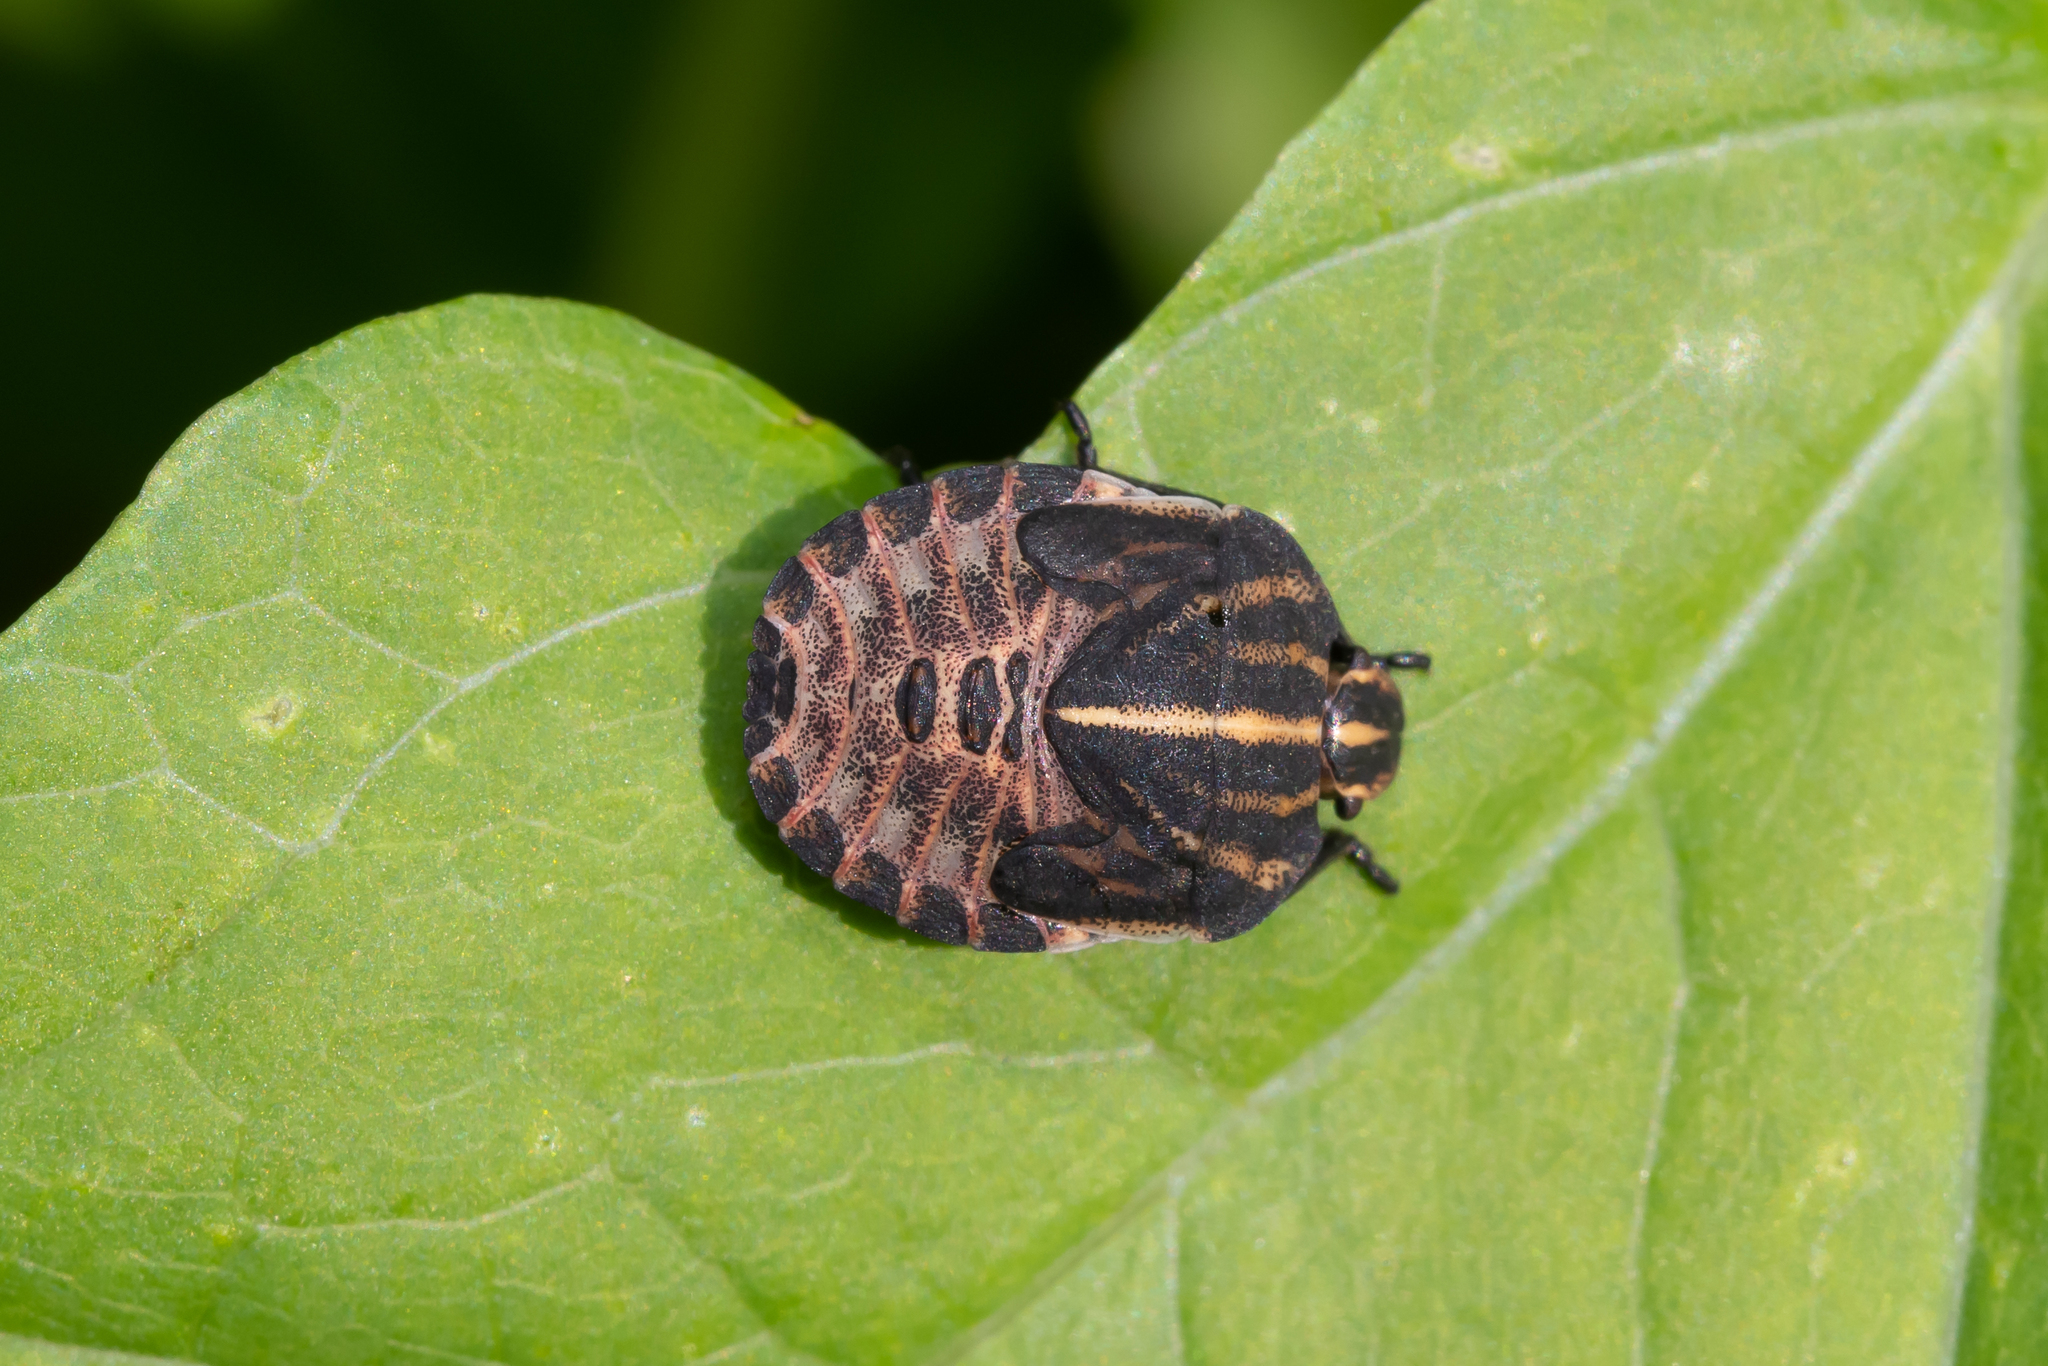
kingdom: Animalia
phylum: Arthropoda
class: Insecta
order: Hemiptera
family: Pentatomidae
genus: Graphosoma
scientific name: Graphosoma italicum
